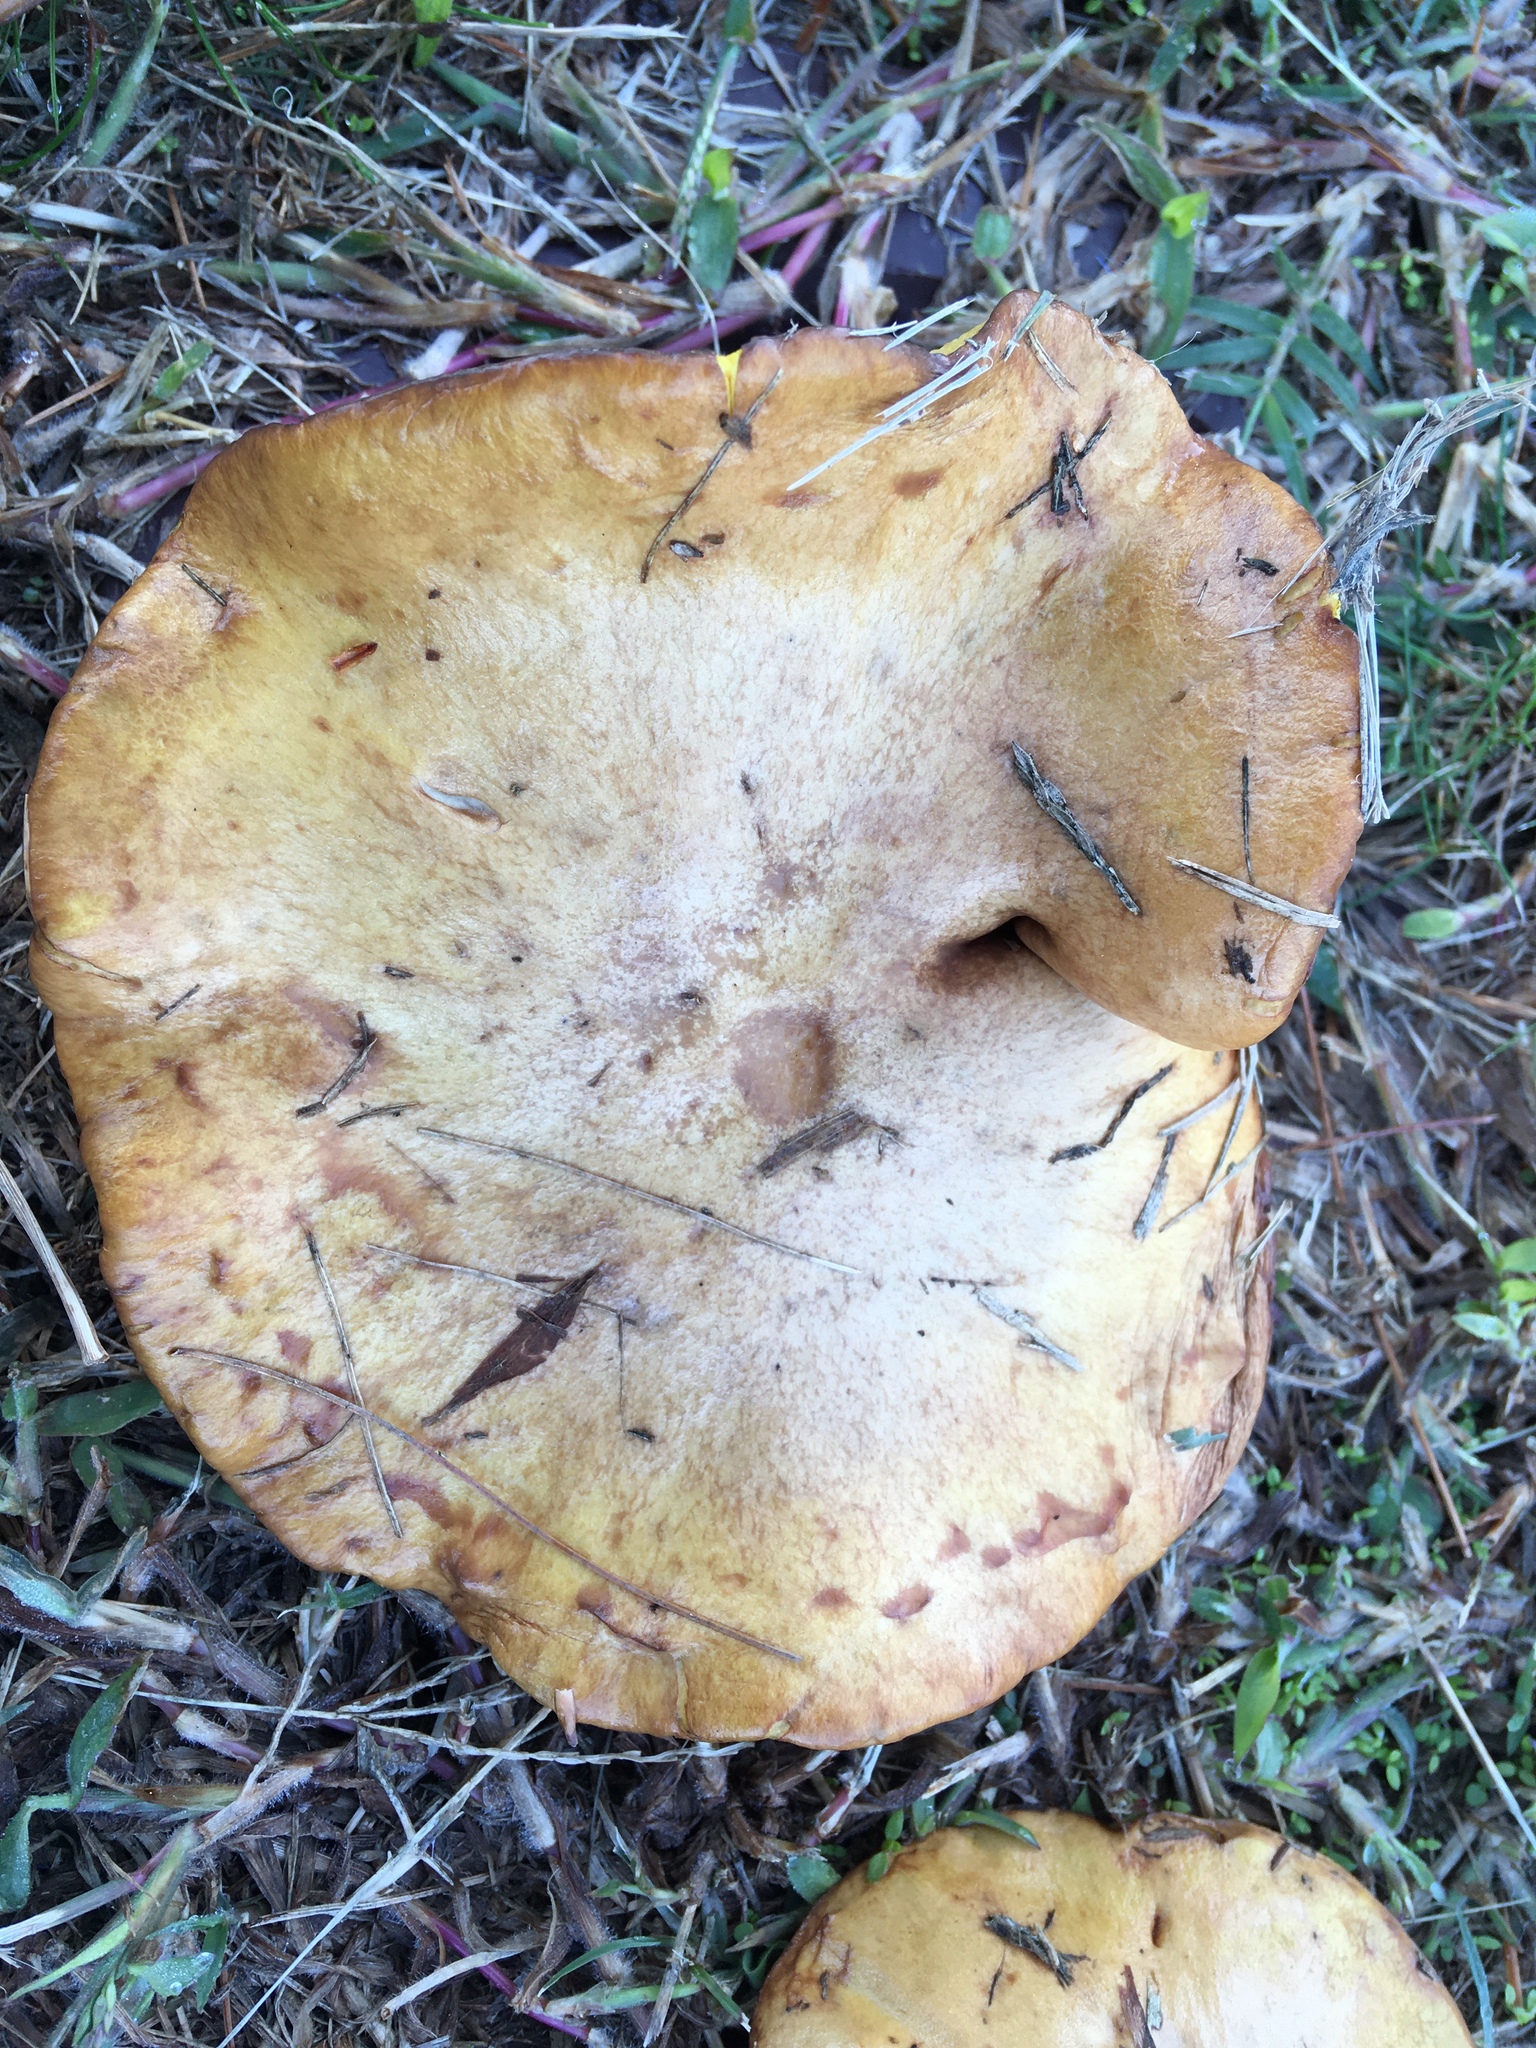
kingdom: Fungi
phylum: Basidiomycota
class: Agaricomycetes
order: Boletales
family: Suillaceae
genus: Suillus
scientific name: Suillus americanus
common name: Chicken fat mushroom
